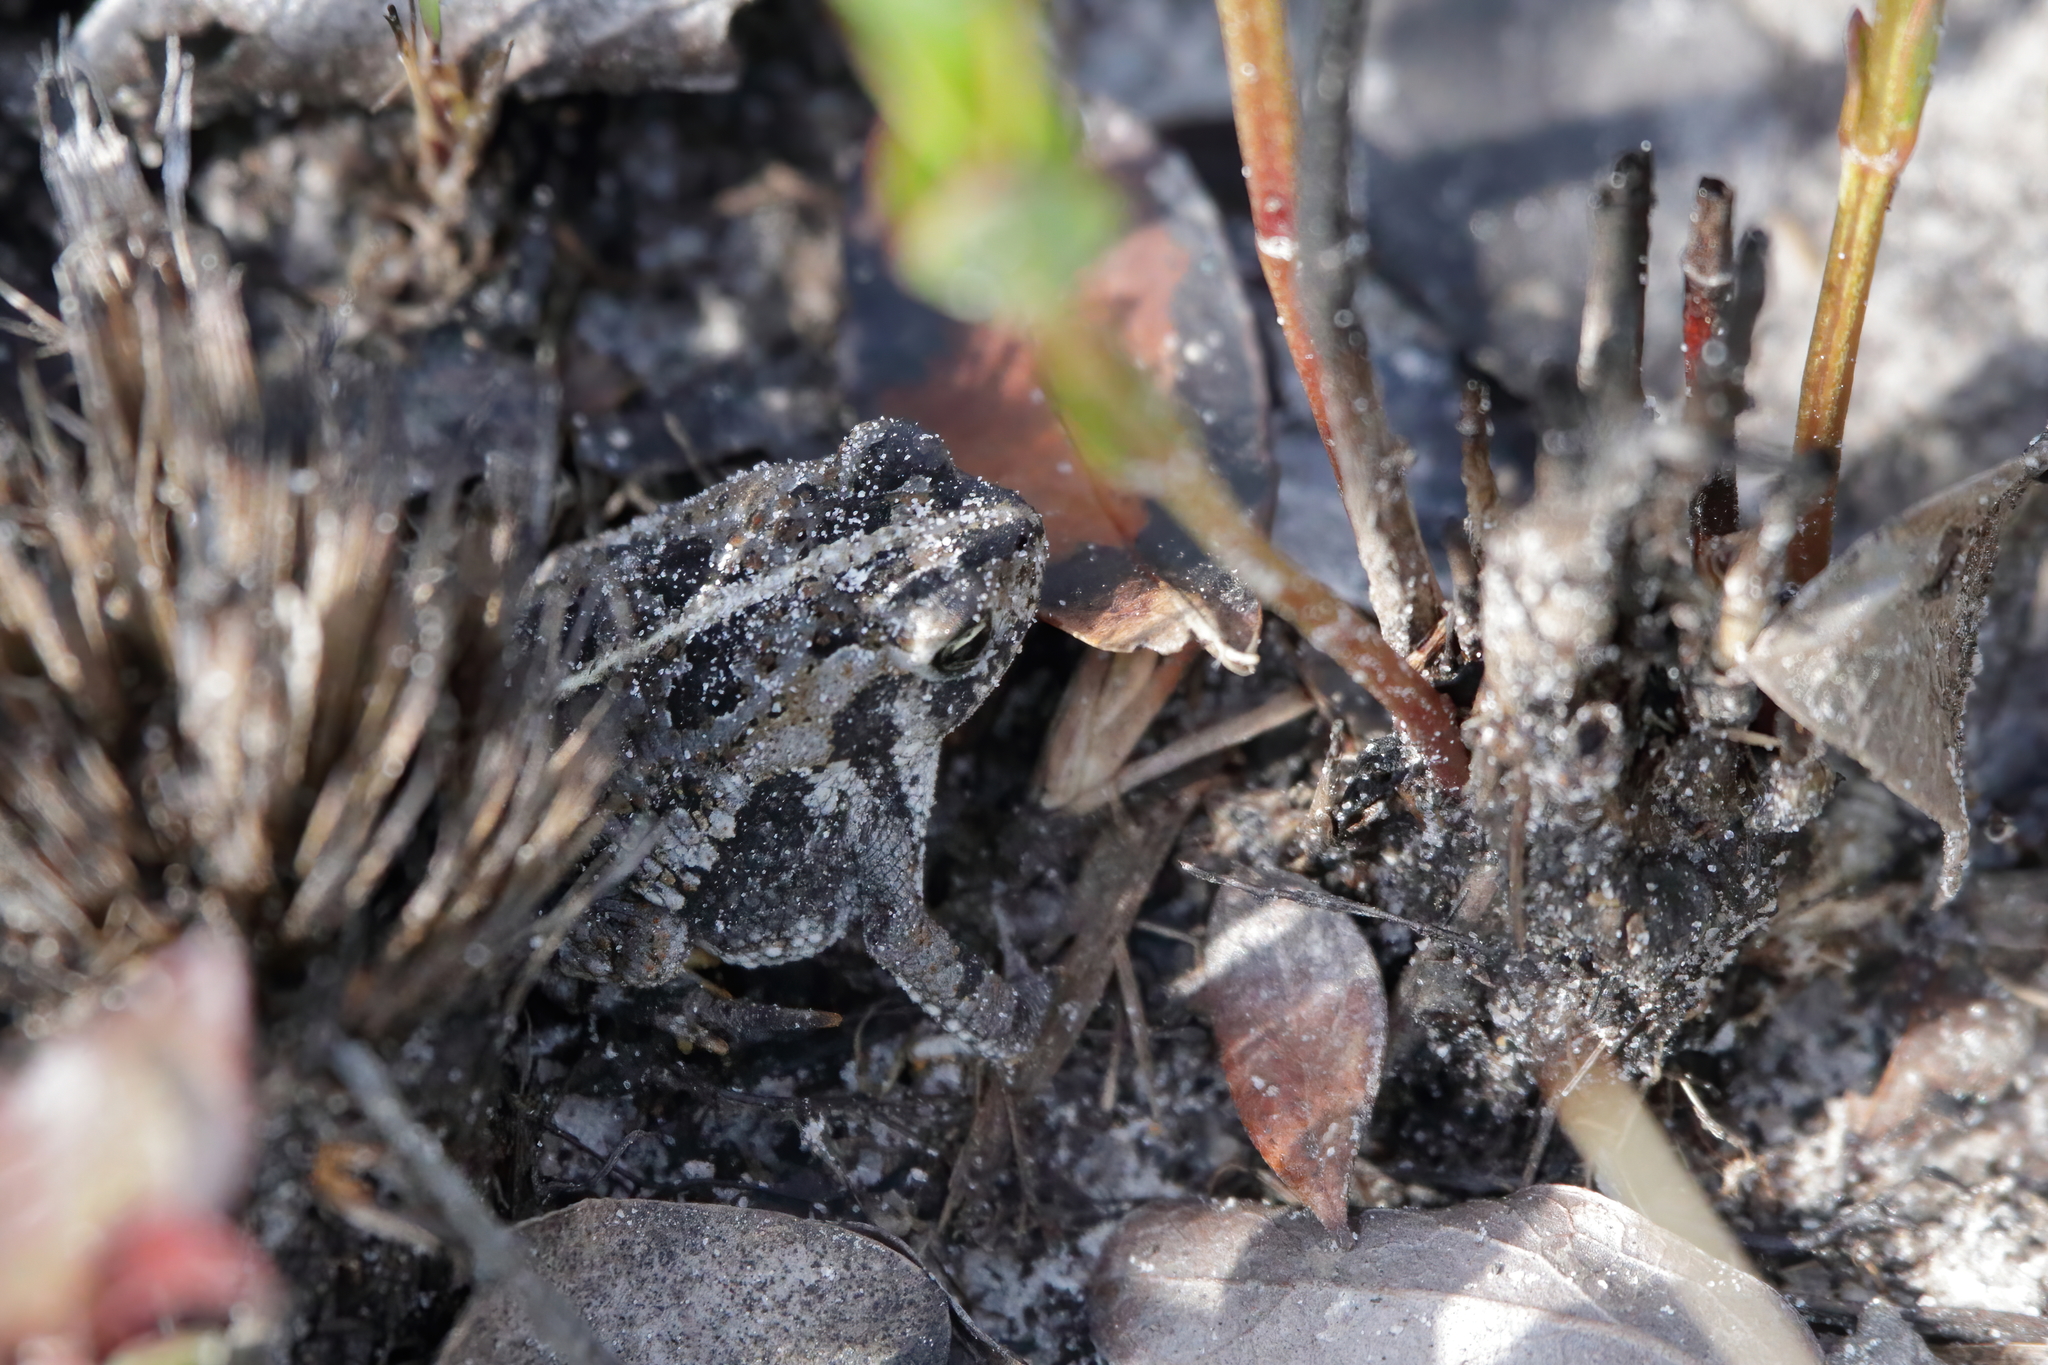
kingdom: Animalia
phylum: Chordata
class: Amphibia
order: Anura
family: Bufonidae
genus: Anaxyrus
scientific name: Anaxyrus quercicus
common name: Oak toad
